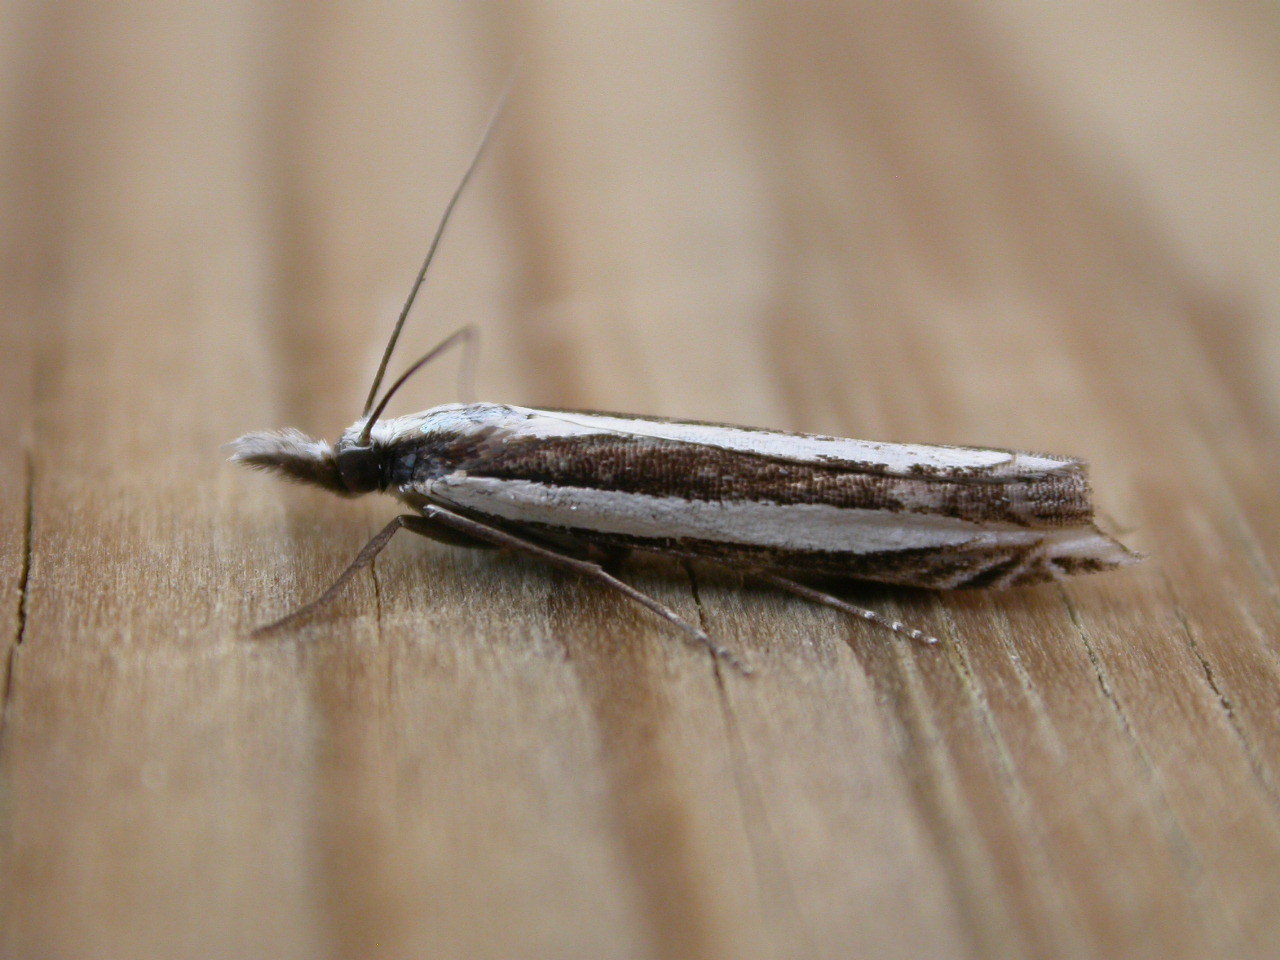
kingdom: Animalia
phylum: Arthropoda
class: Insecta
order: Lepidoptera
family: Crambidae
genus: Angustalius
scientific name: Angustalius malacellus
